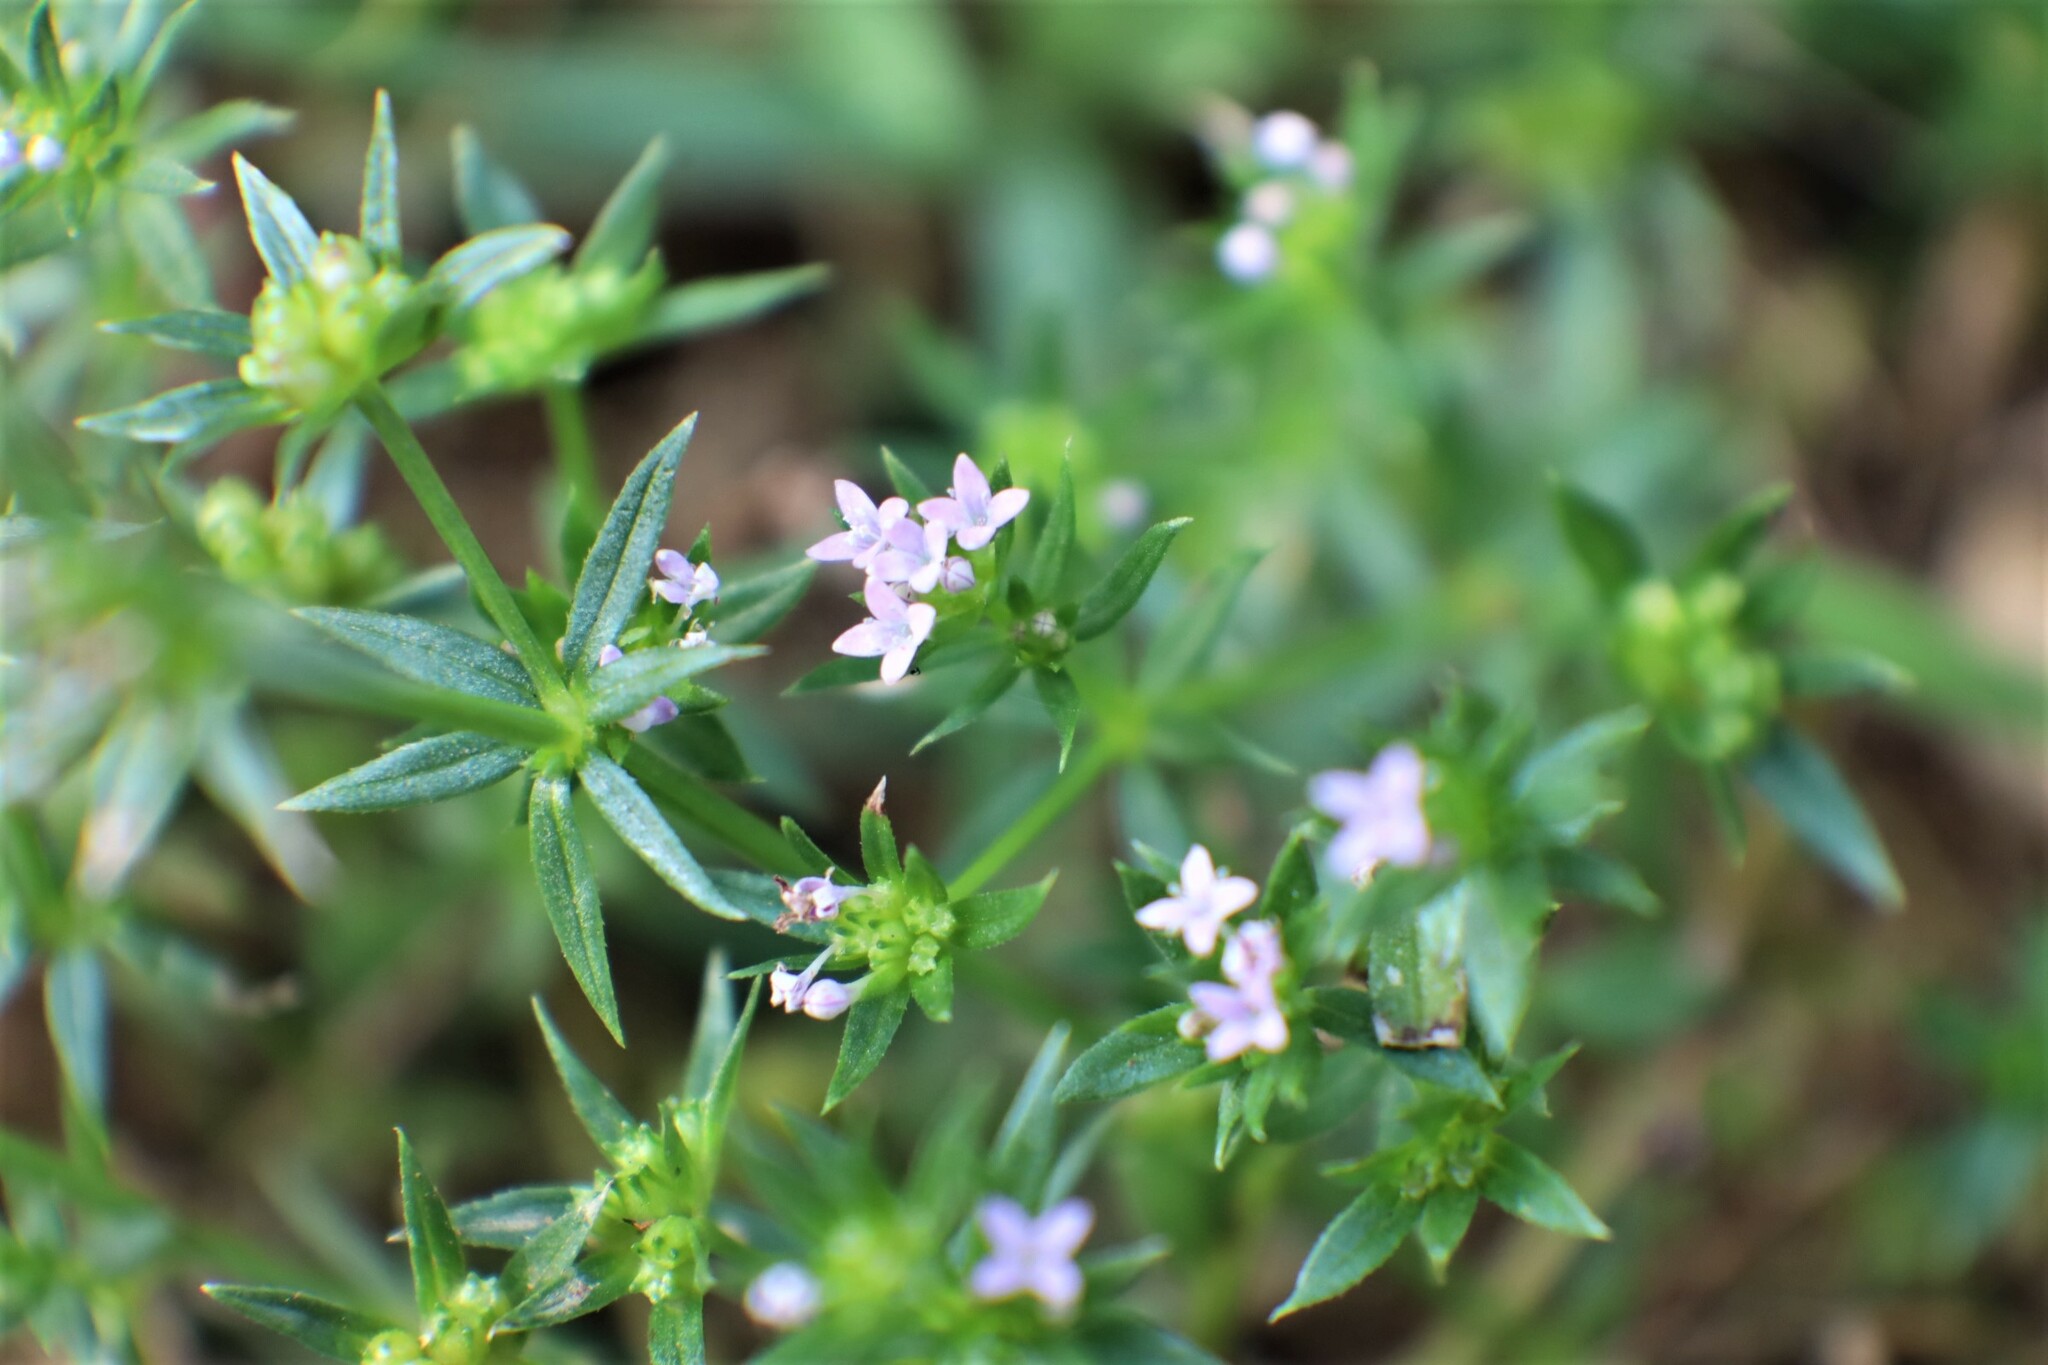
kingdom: Plantae
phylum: Tracheophyta
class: Magnoliopsida
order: Gentianales
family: Rubiaceae
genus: Sherardia
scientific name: Sherardia arvensis
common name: Field madder
